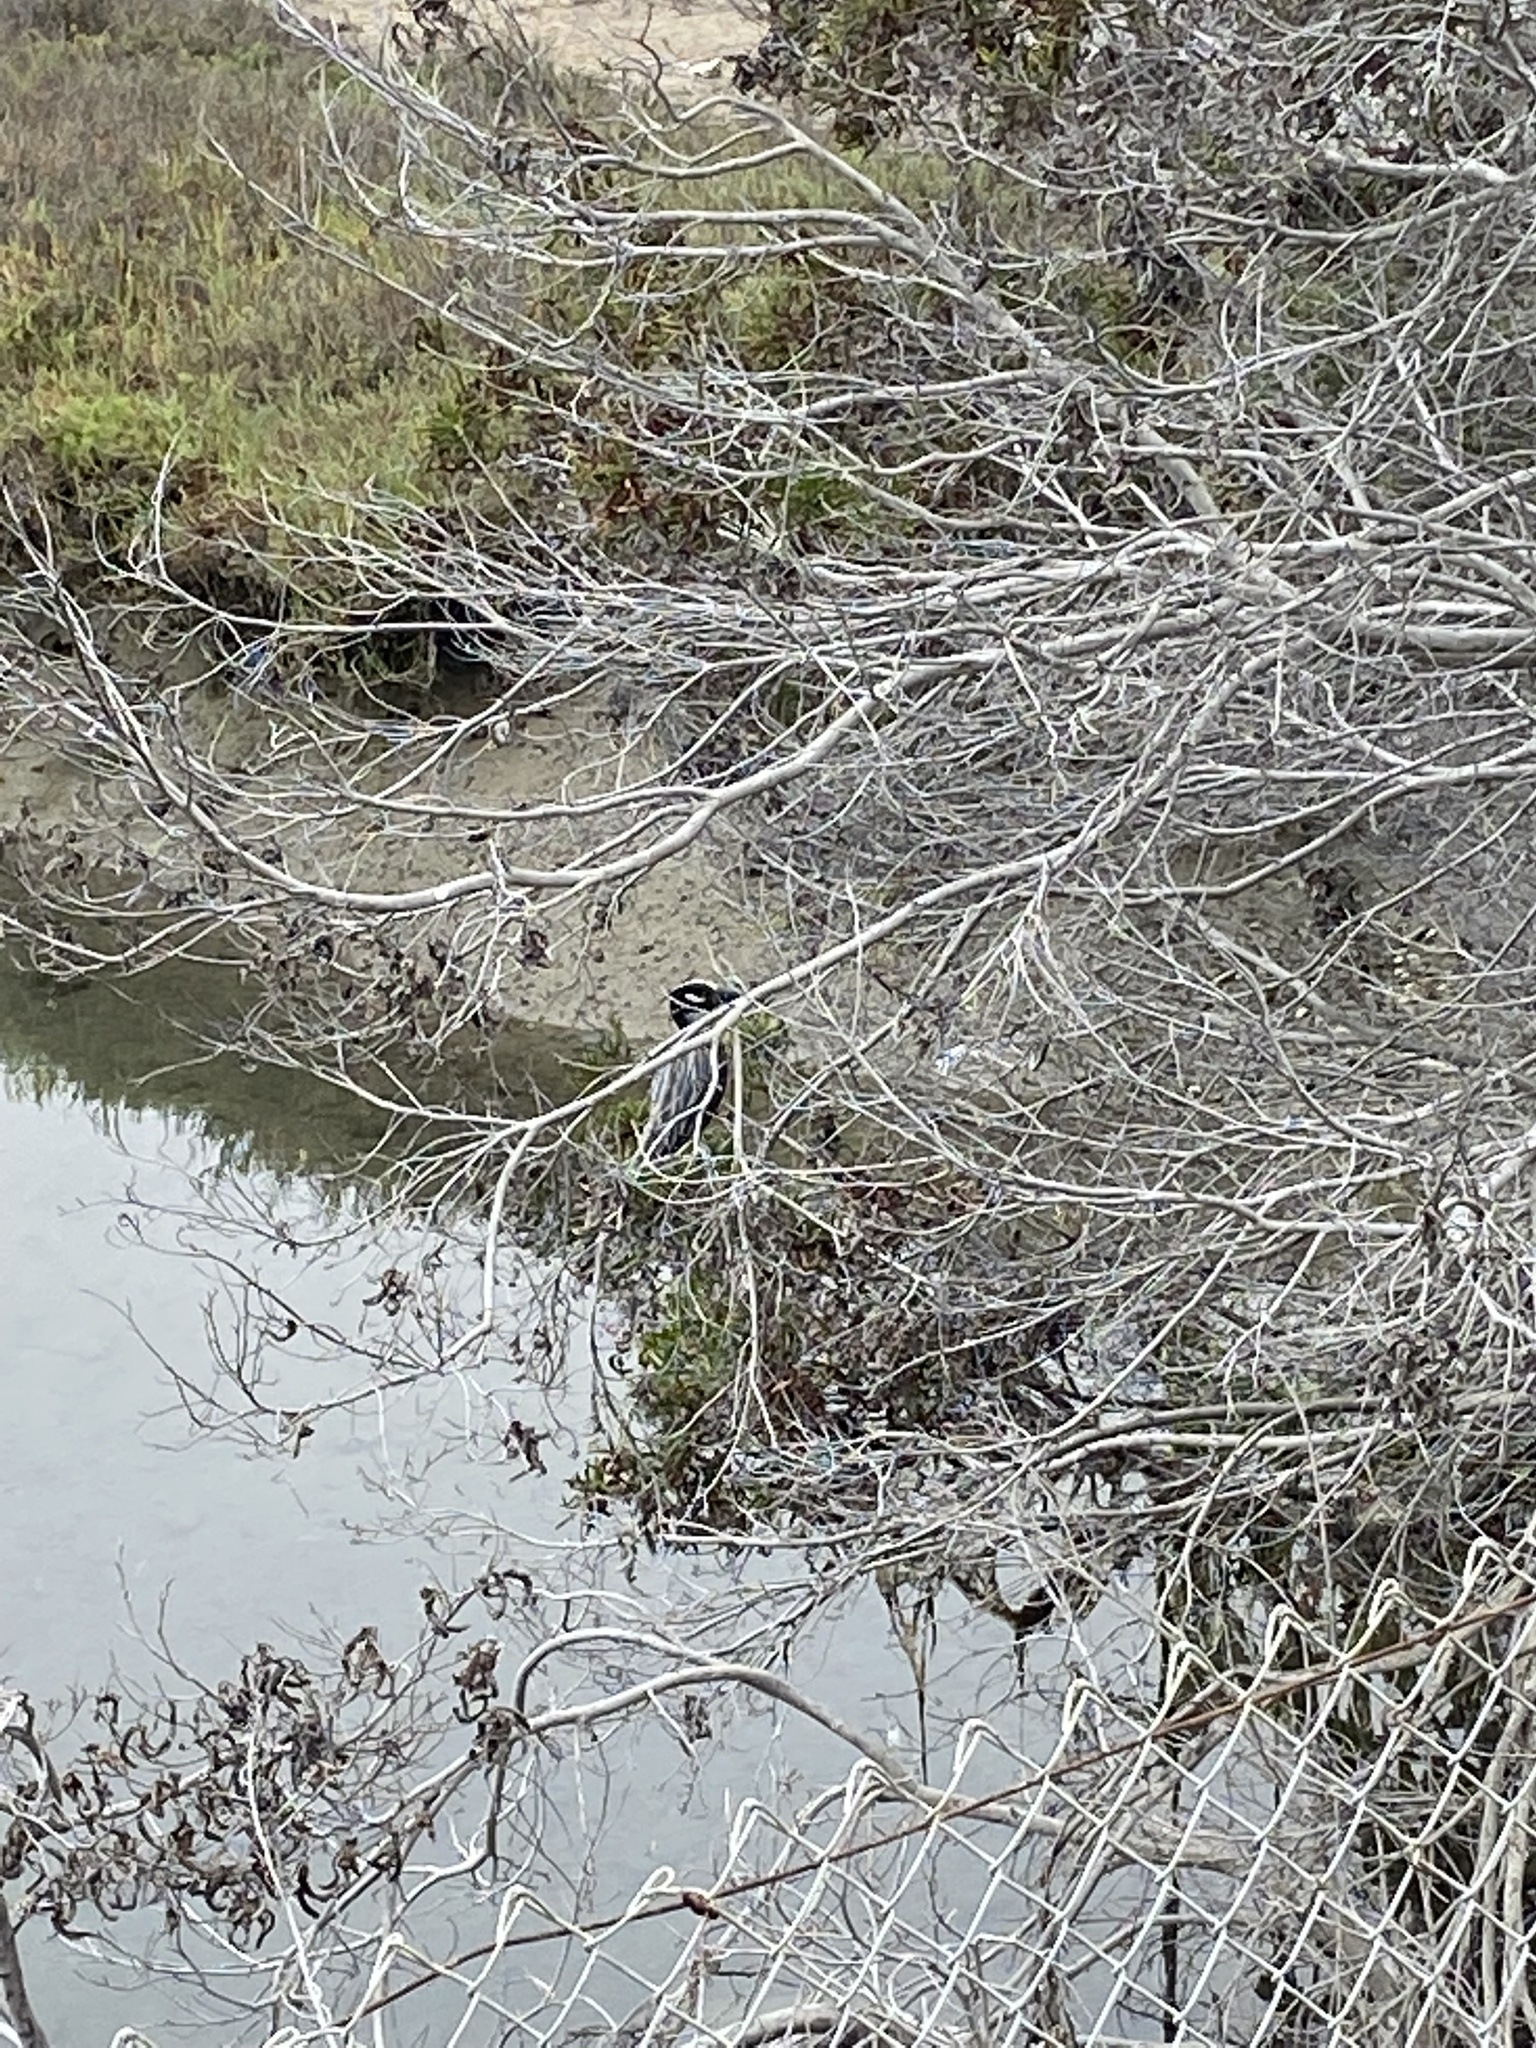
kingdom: Animalia
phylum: Chordata
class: Aves
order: Pelecaniformes
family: Ardeidae
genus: Nyctanassa
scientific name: Nyctanassa violacea
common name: Yellow-crowned night heron
